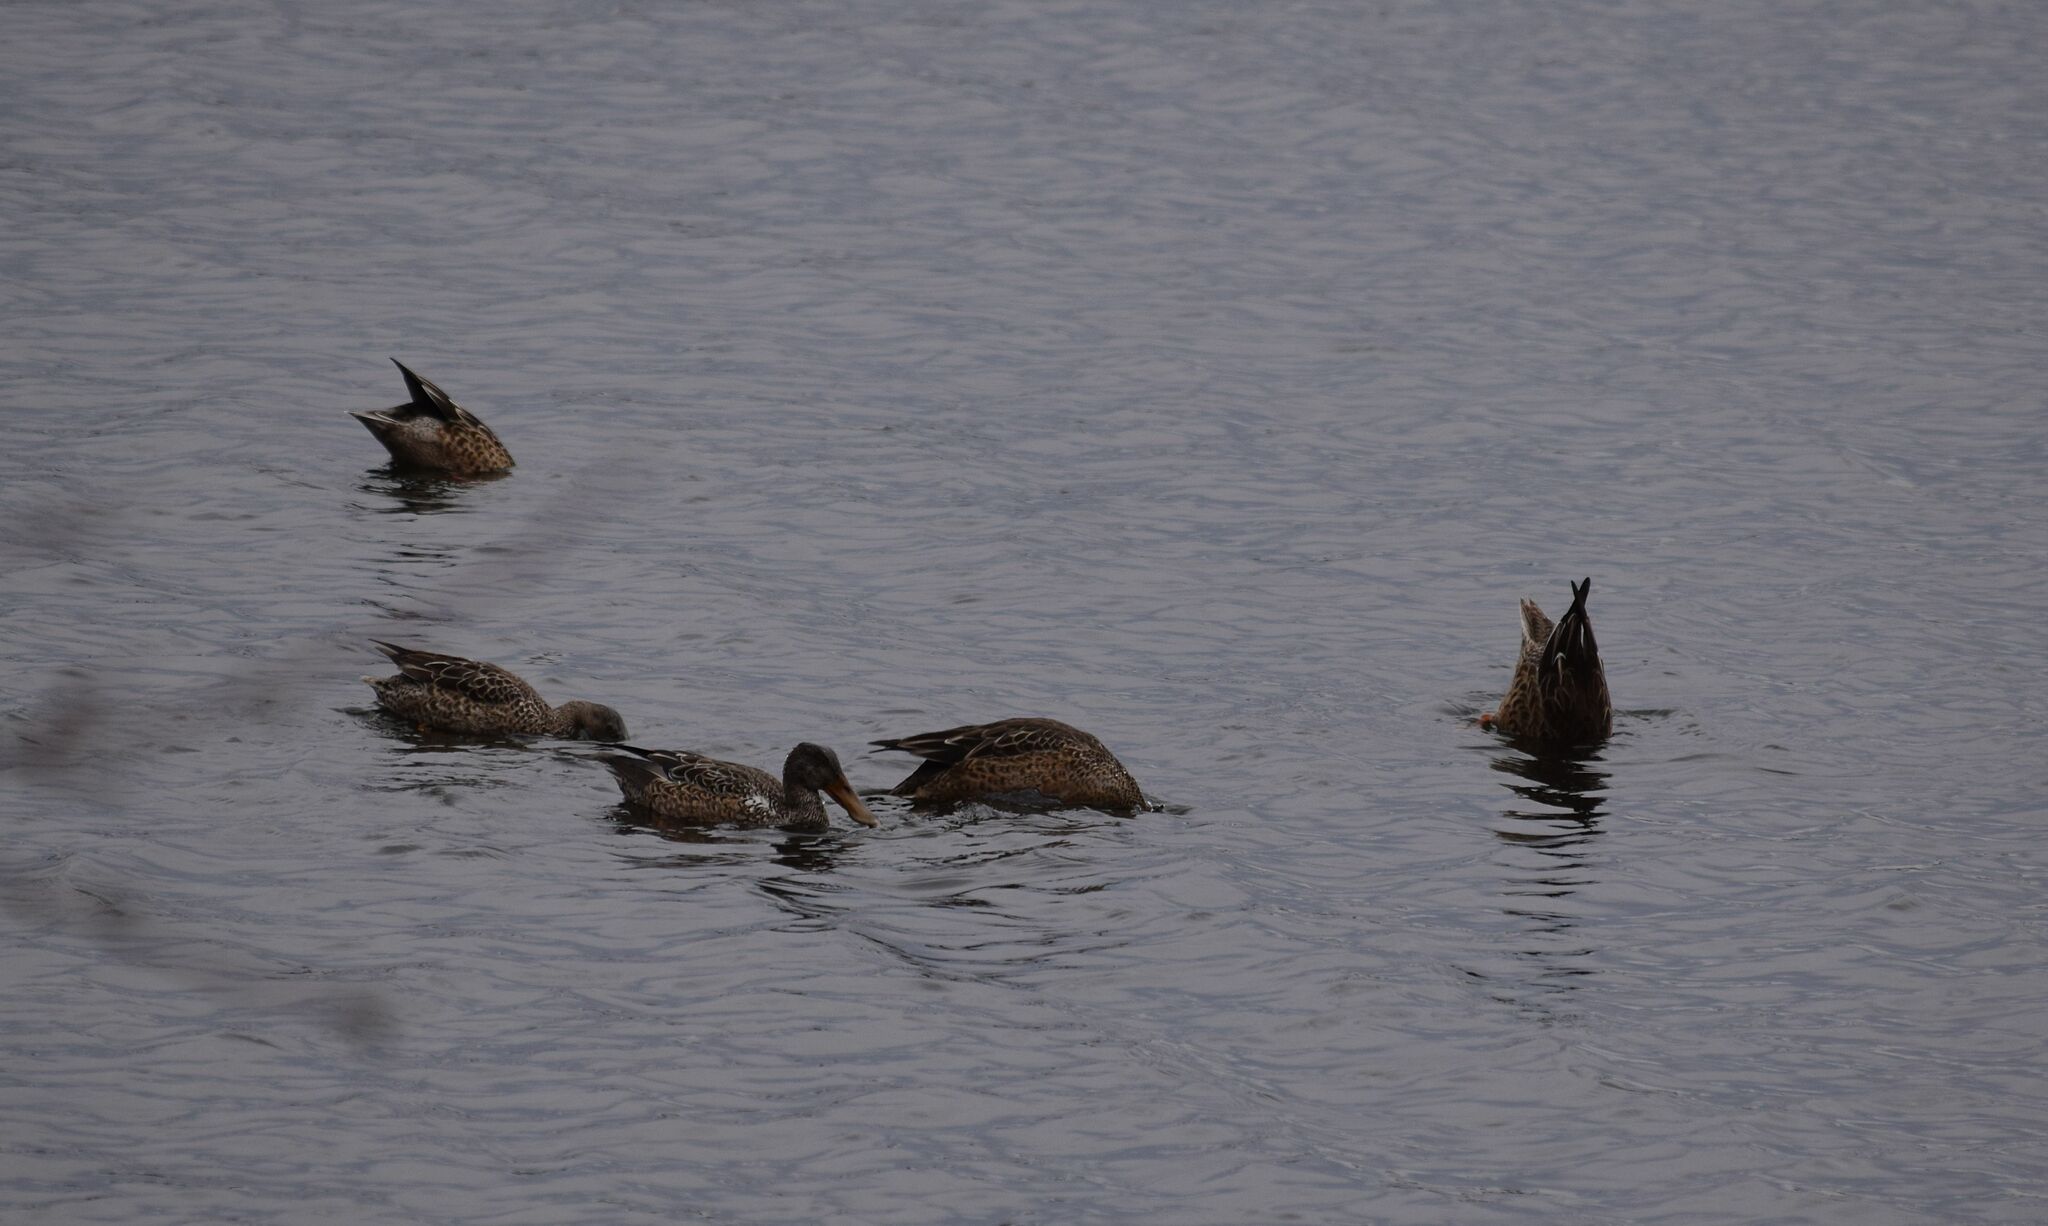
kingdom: Animalia
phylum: Chordata
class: Aves
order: Anseriformes
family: Anatidae
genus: Spatula
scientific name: Spatula clypeata
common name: Northern shoveler
